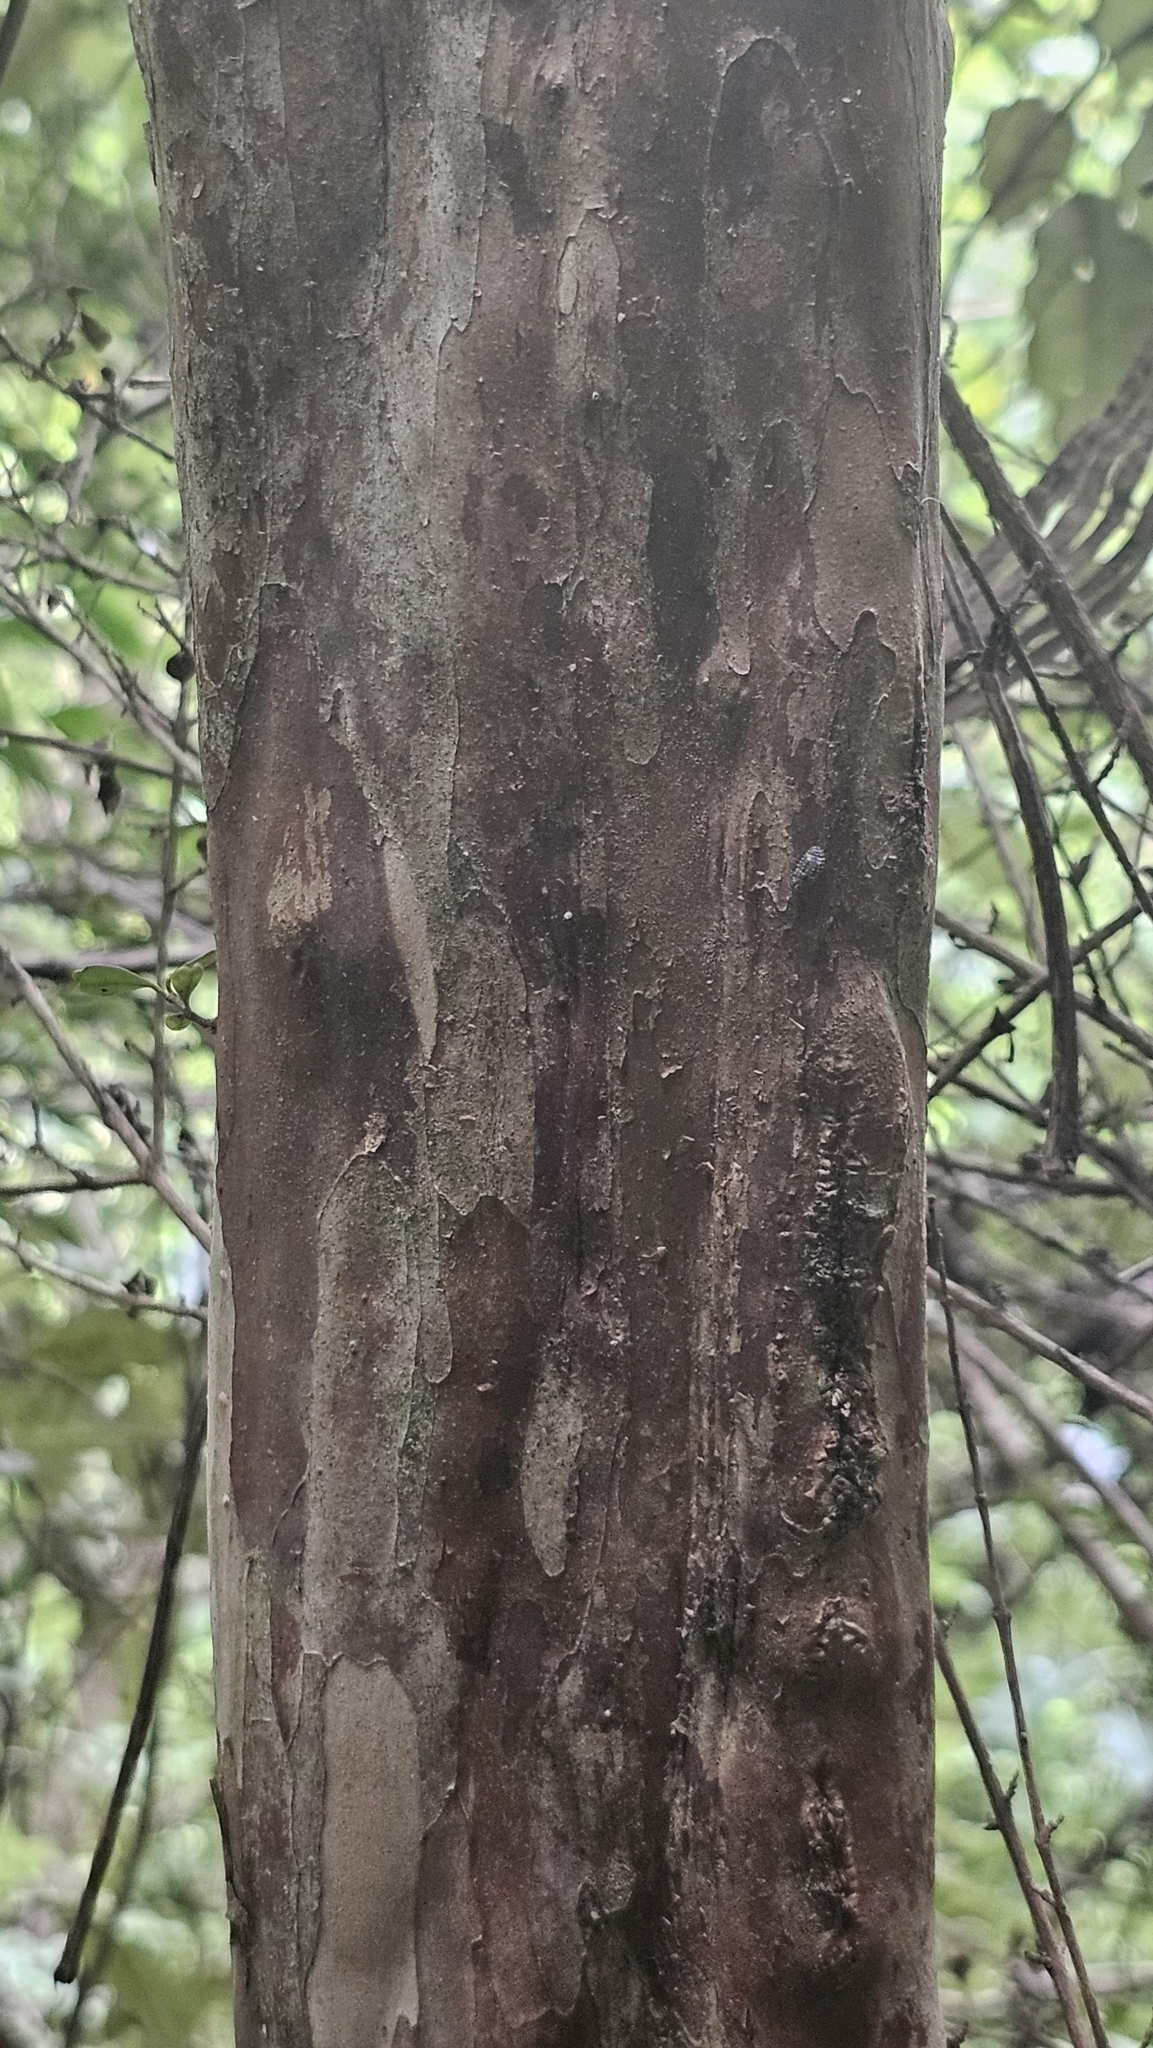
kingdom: Plantae
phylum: Tracheophyta
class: Magnoliopsida
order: Myrtales
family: Myrtaceae
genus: Lophomyrtus
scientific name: Lophomyrtus obcordata
